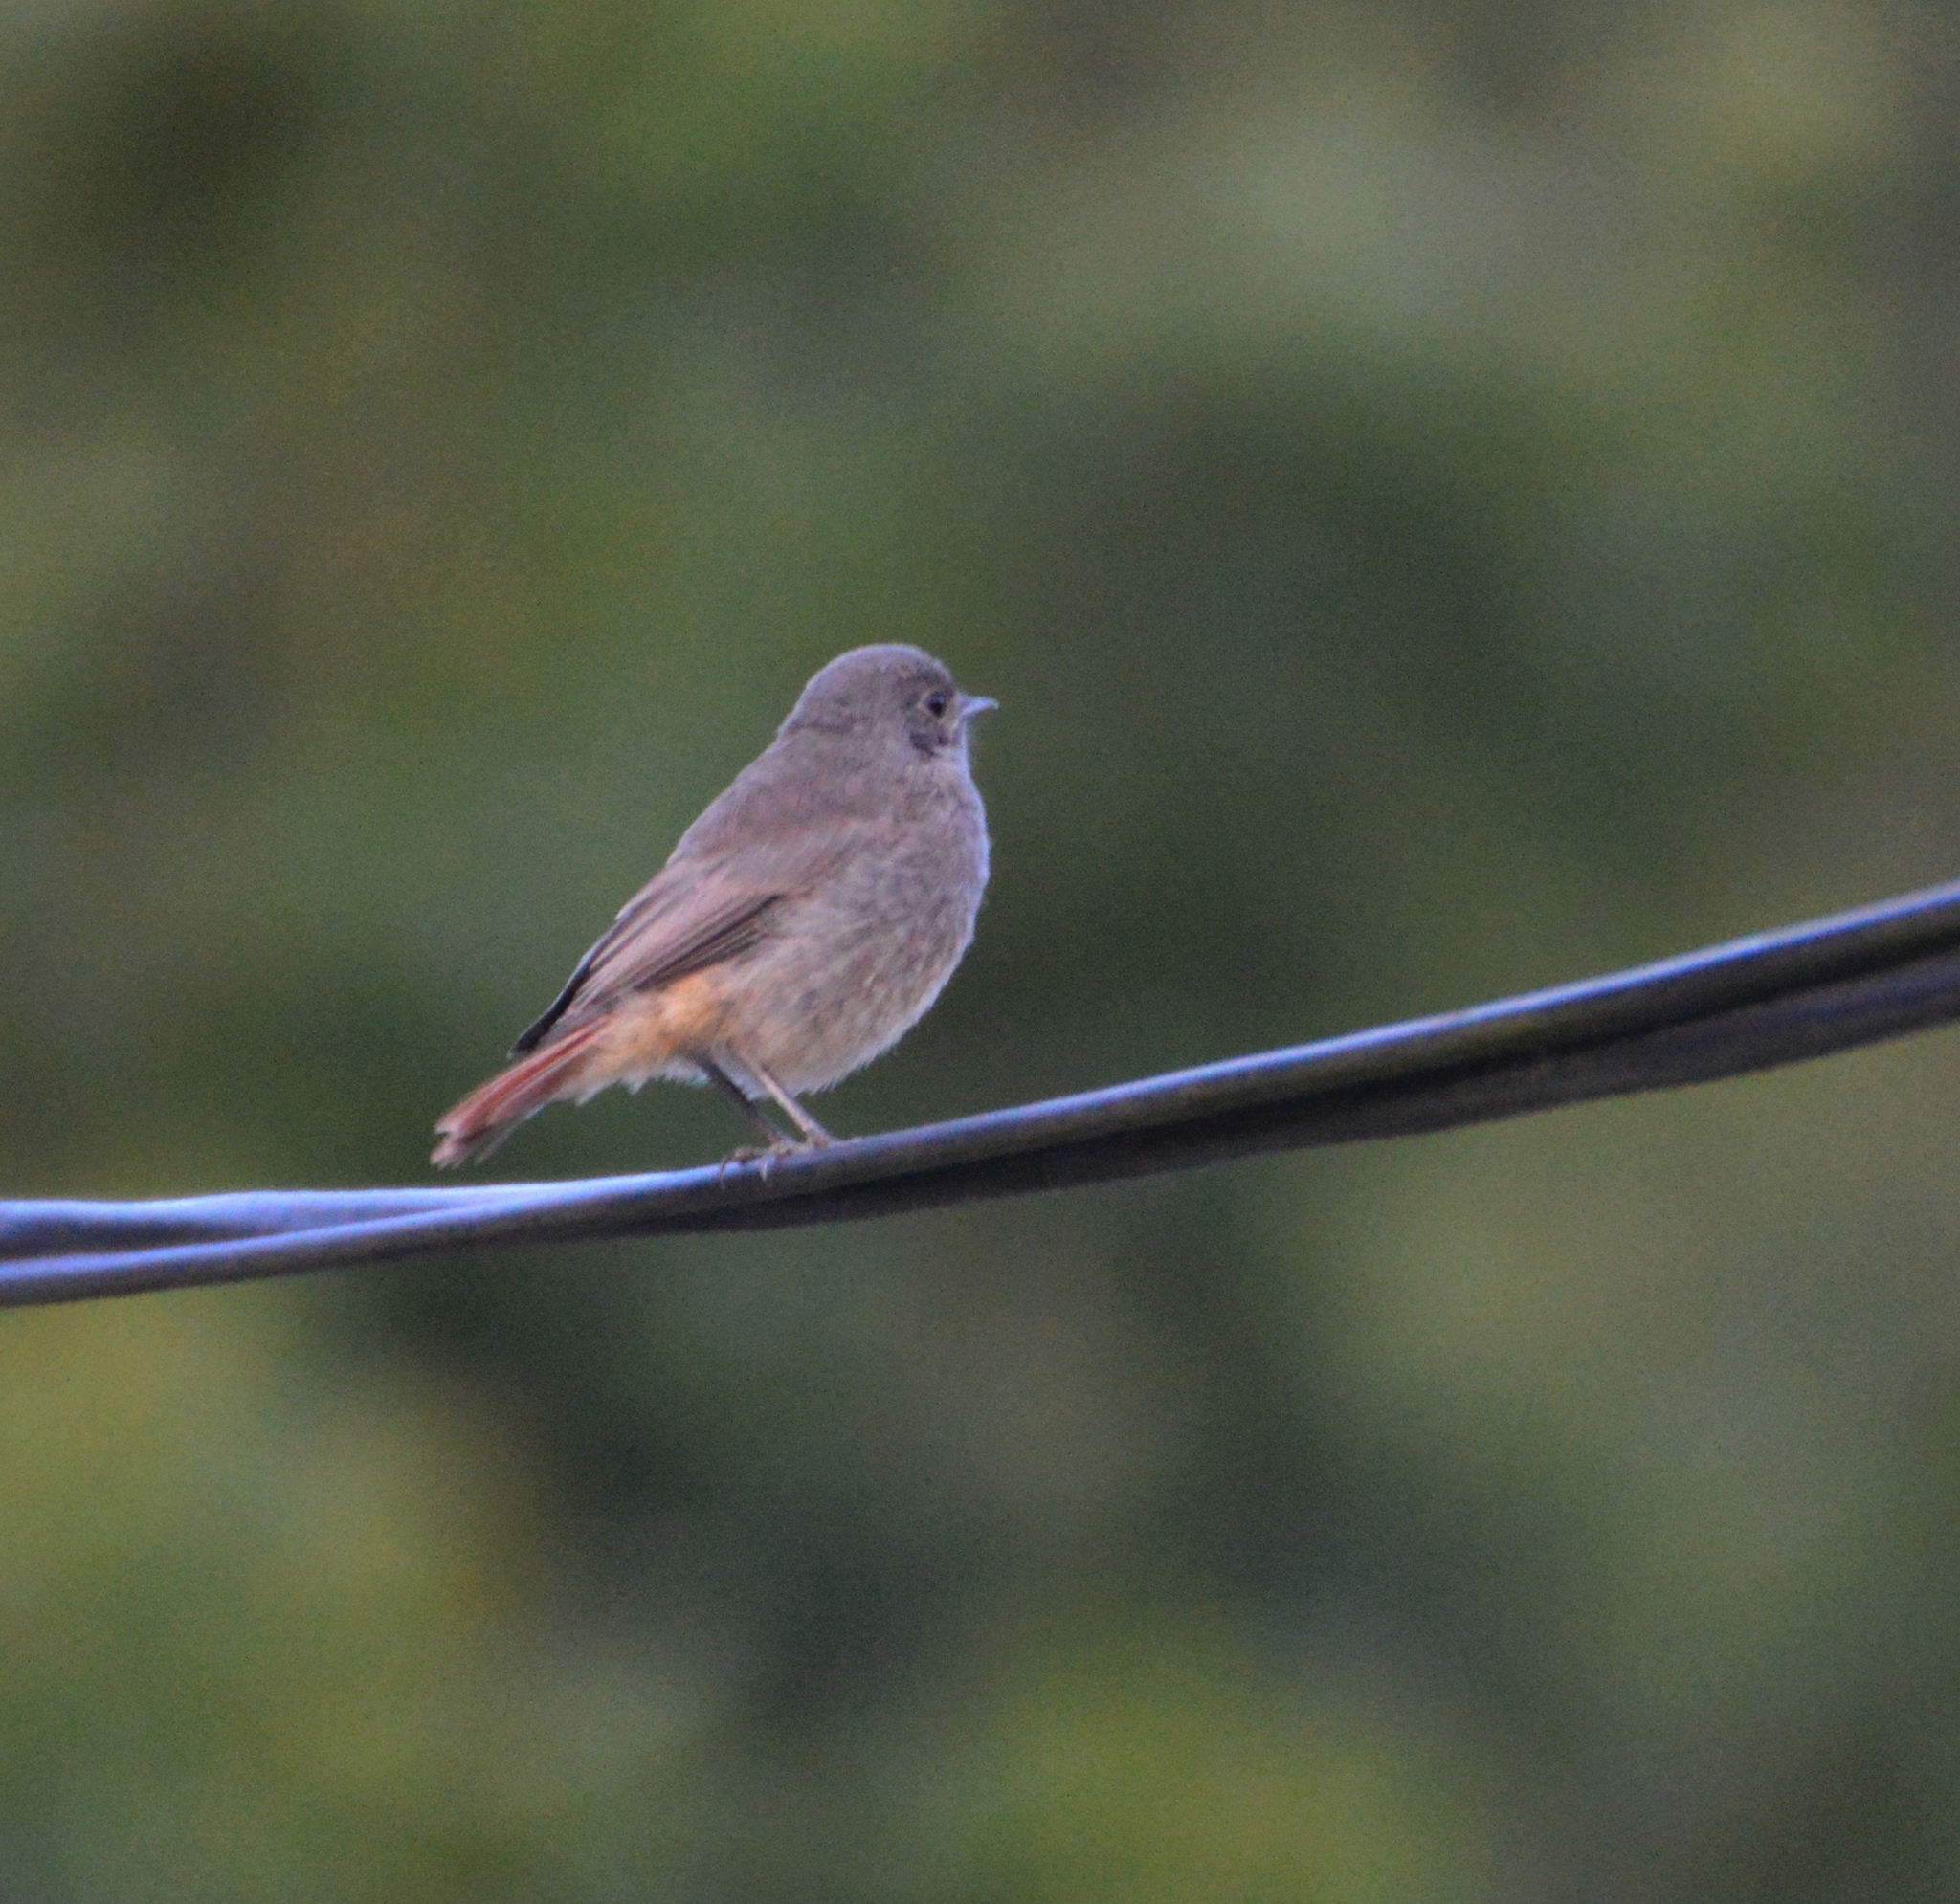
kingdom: Animalia
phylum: Chordata
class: Aves
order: Passeriformes
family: Muscicapidae
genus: Phoenicurus
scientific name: Phoenicurus ochruros
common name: Black redstart
